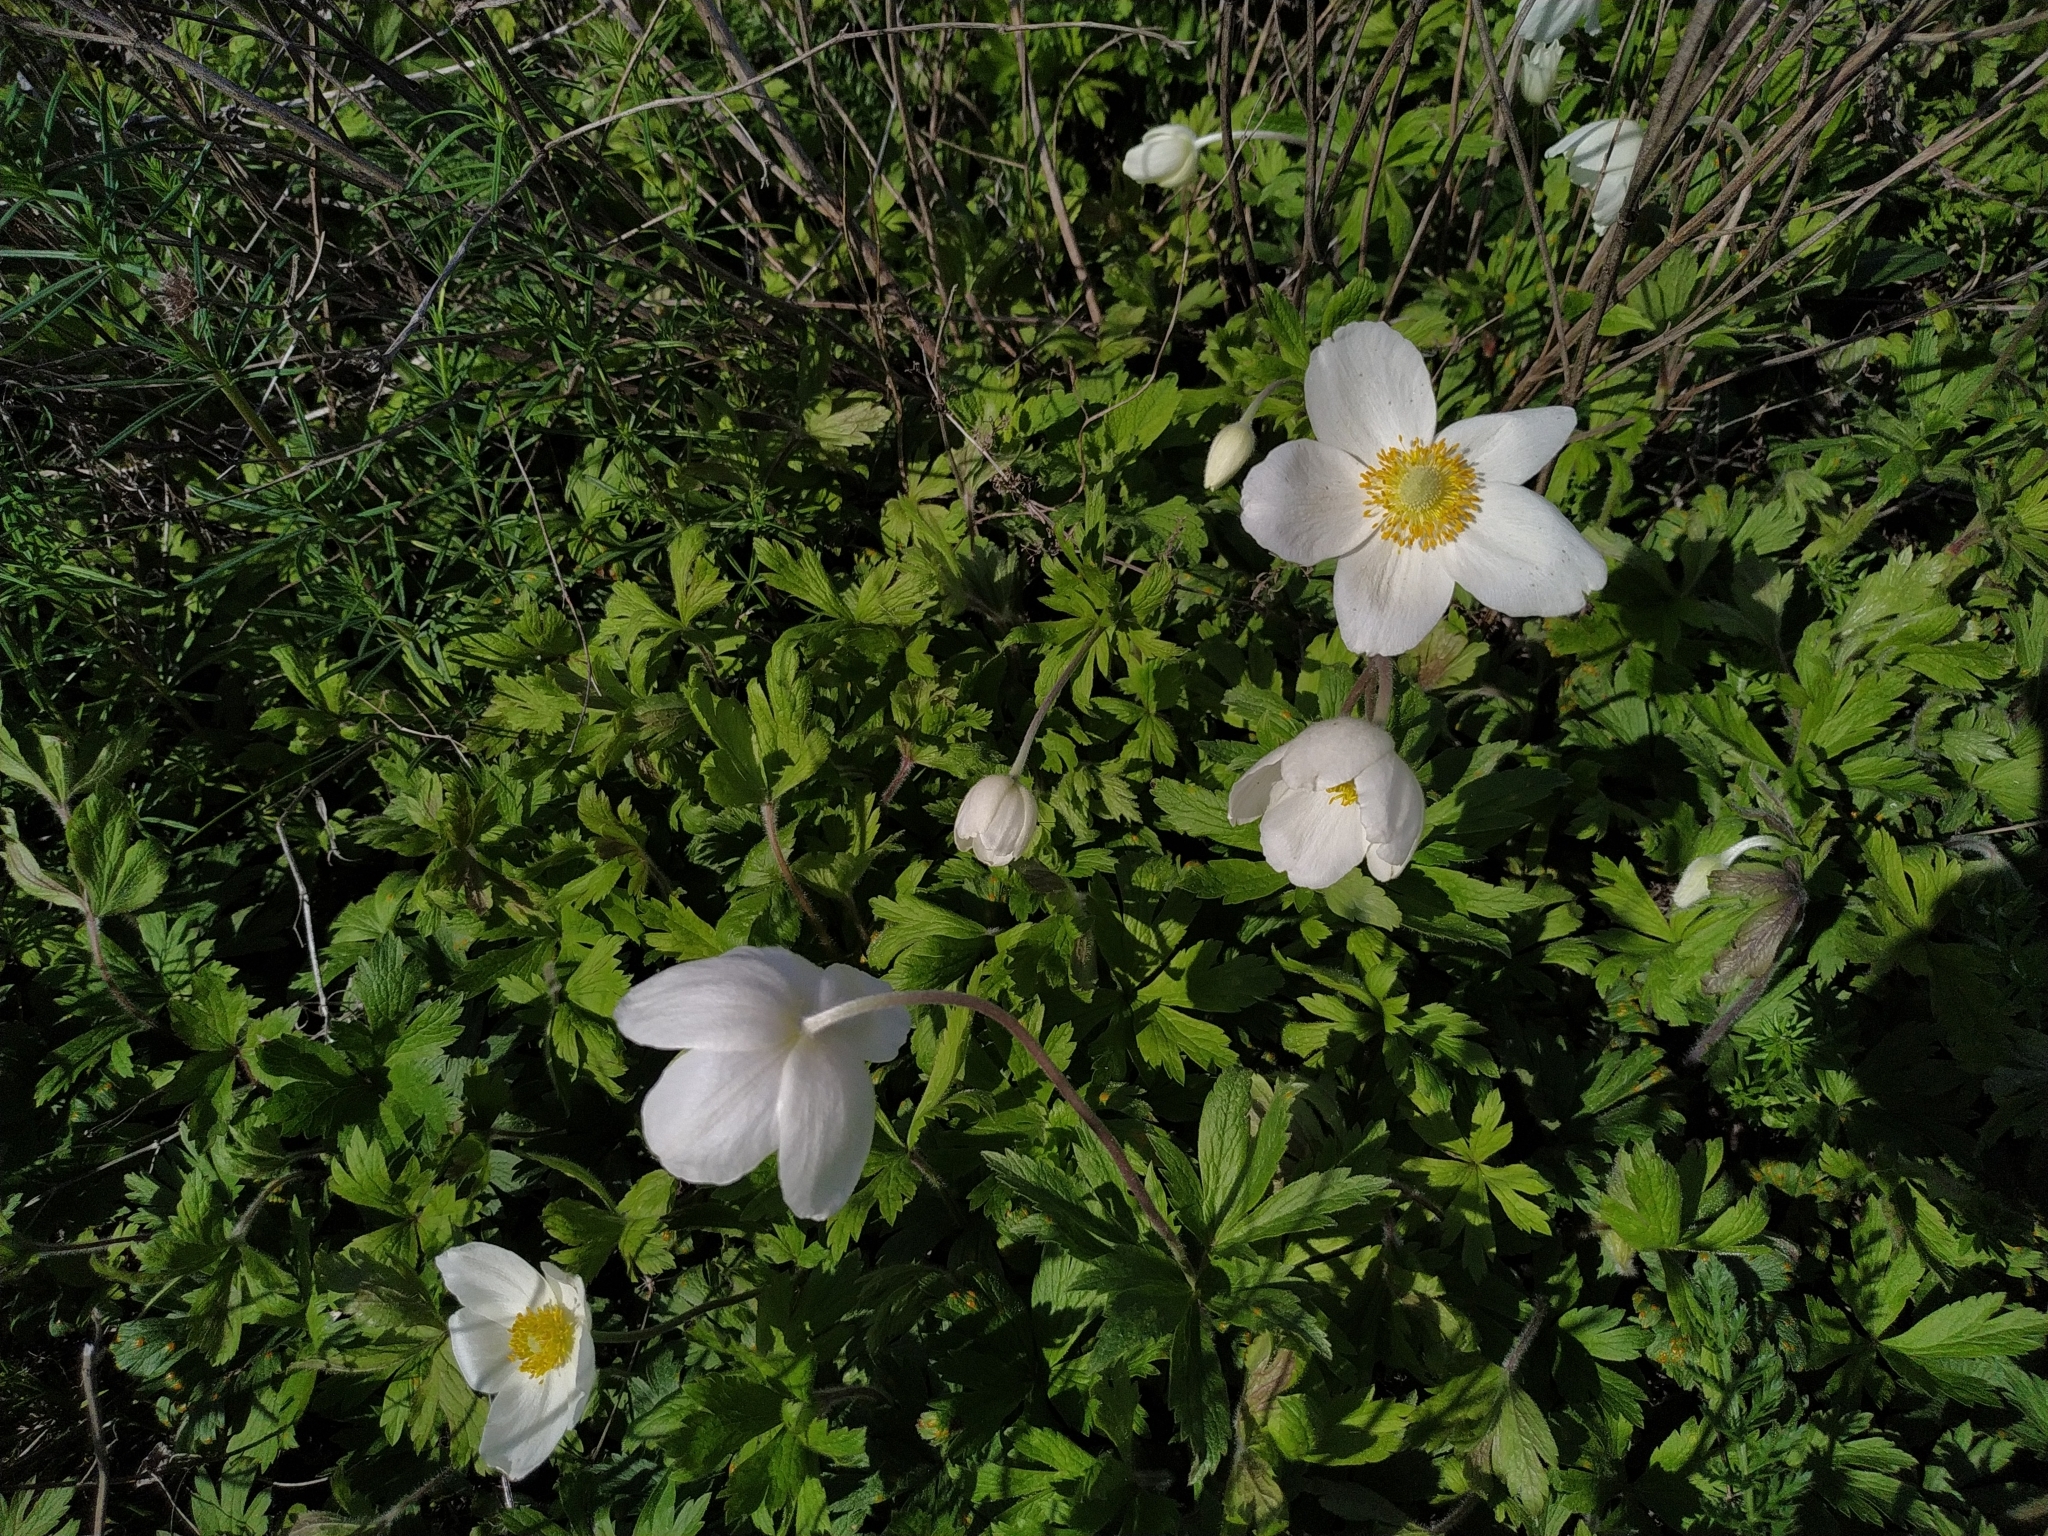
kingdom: Plantae
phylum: Tracheophyta
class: Magnoliopsida
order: Ranunculales
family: Ranunculaceae
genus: Anemone
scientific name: Anemone sylvestris
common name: Snowdrop anemone
